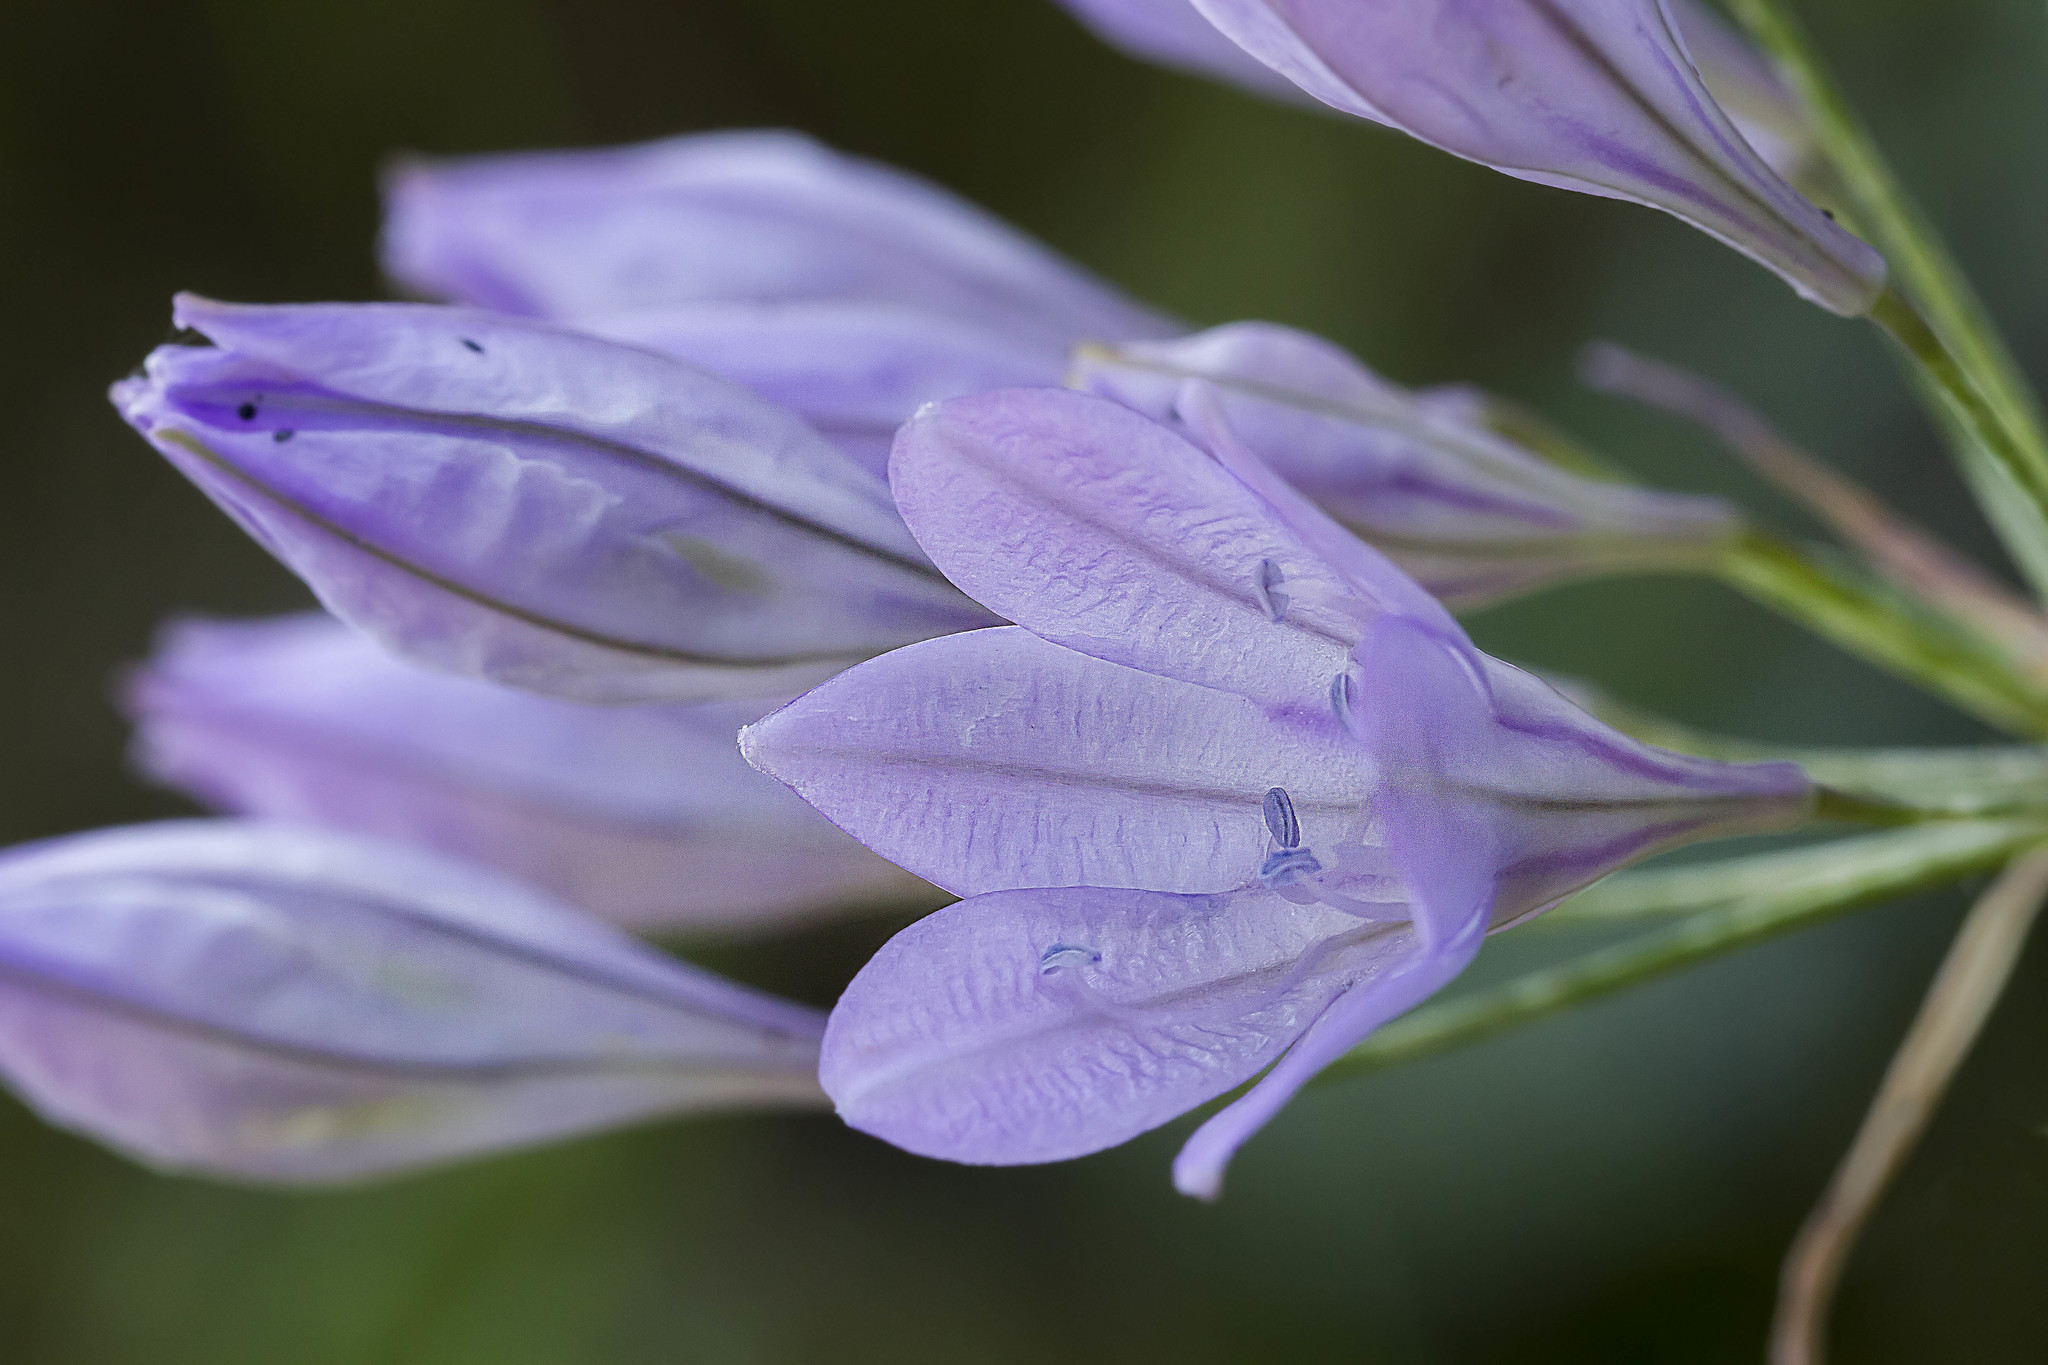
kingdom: Plantae
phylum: Tracheophyta
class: Liliopsida
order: Asparagales
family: Asparagaceae
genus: Triteleia
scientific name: Triteleia laxa
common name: Triplet-lily
